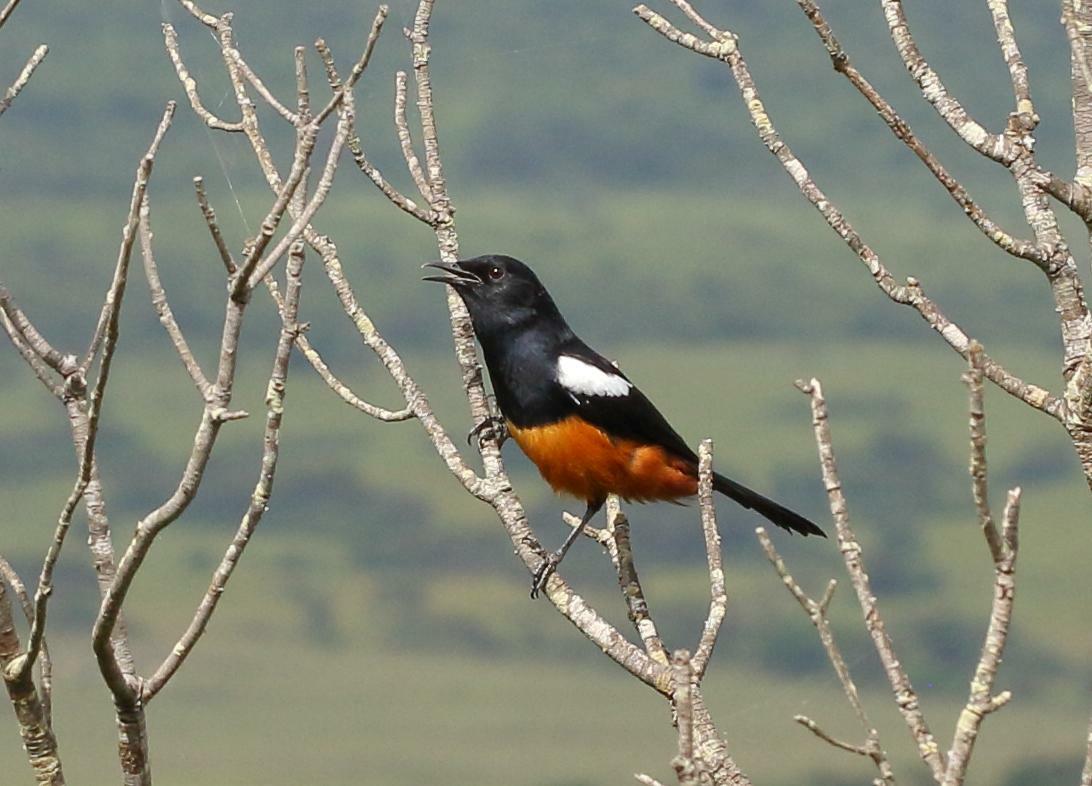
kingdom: Animalia
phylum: Chordata
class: Aves
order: Passeriformes
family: Muscicapidae
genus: Thamnolaea
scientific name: Thamnolaea cinnamomeiventris
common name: Mocking cliff chat
